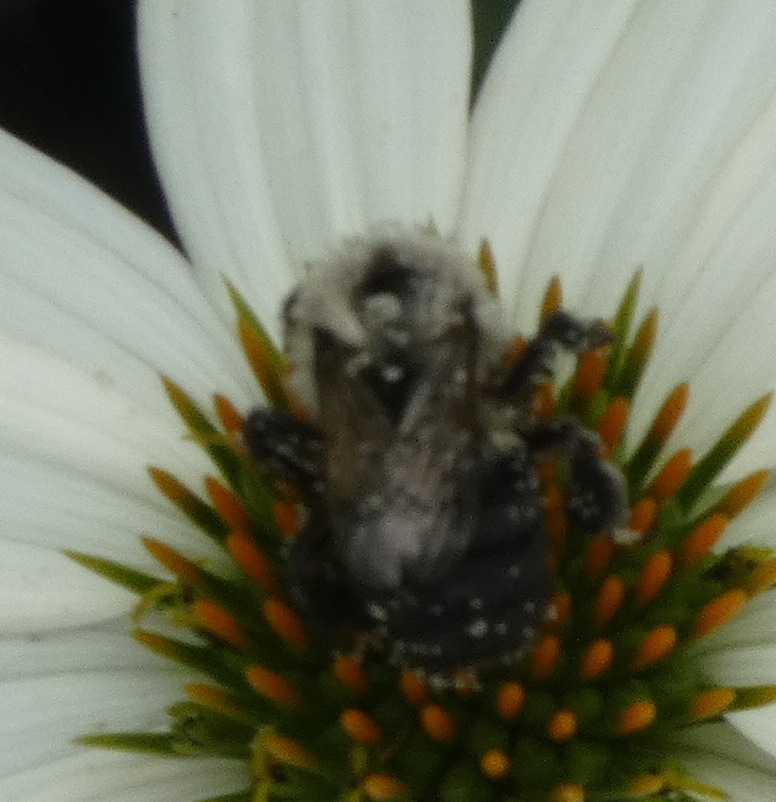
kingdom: Animalia
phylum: Arthropoda
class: Insecta
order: Hymenoptera
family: Apidae
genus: Bombus
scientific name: Bombus impatiens
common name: Common eastern bumble bee
